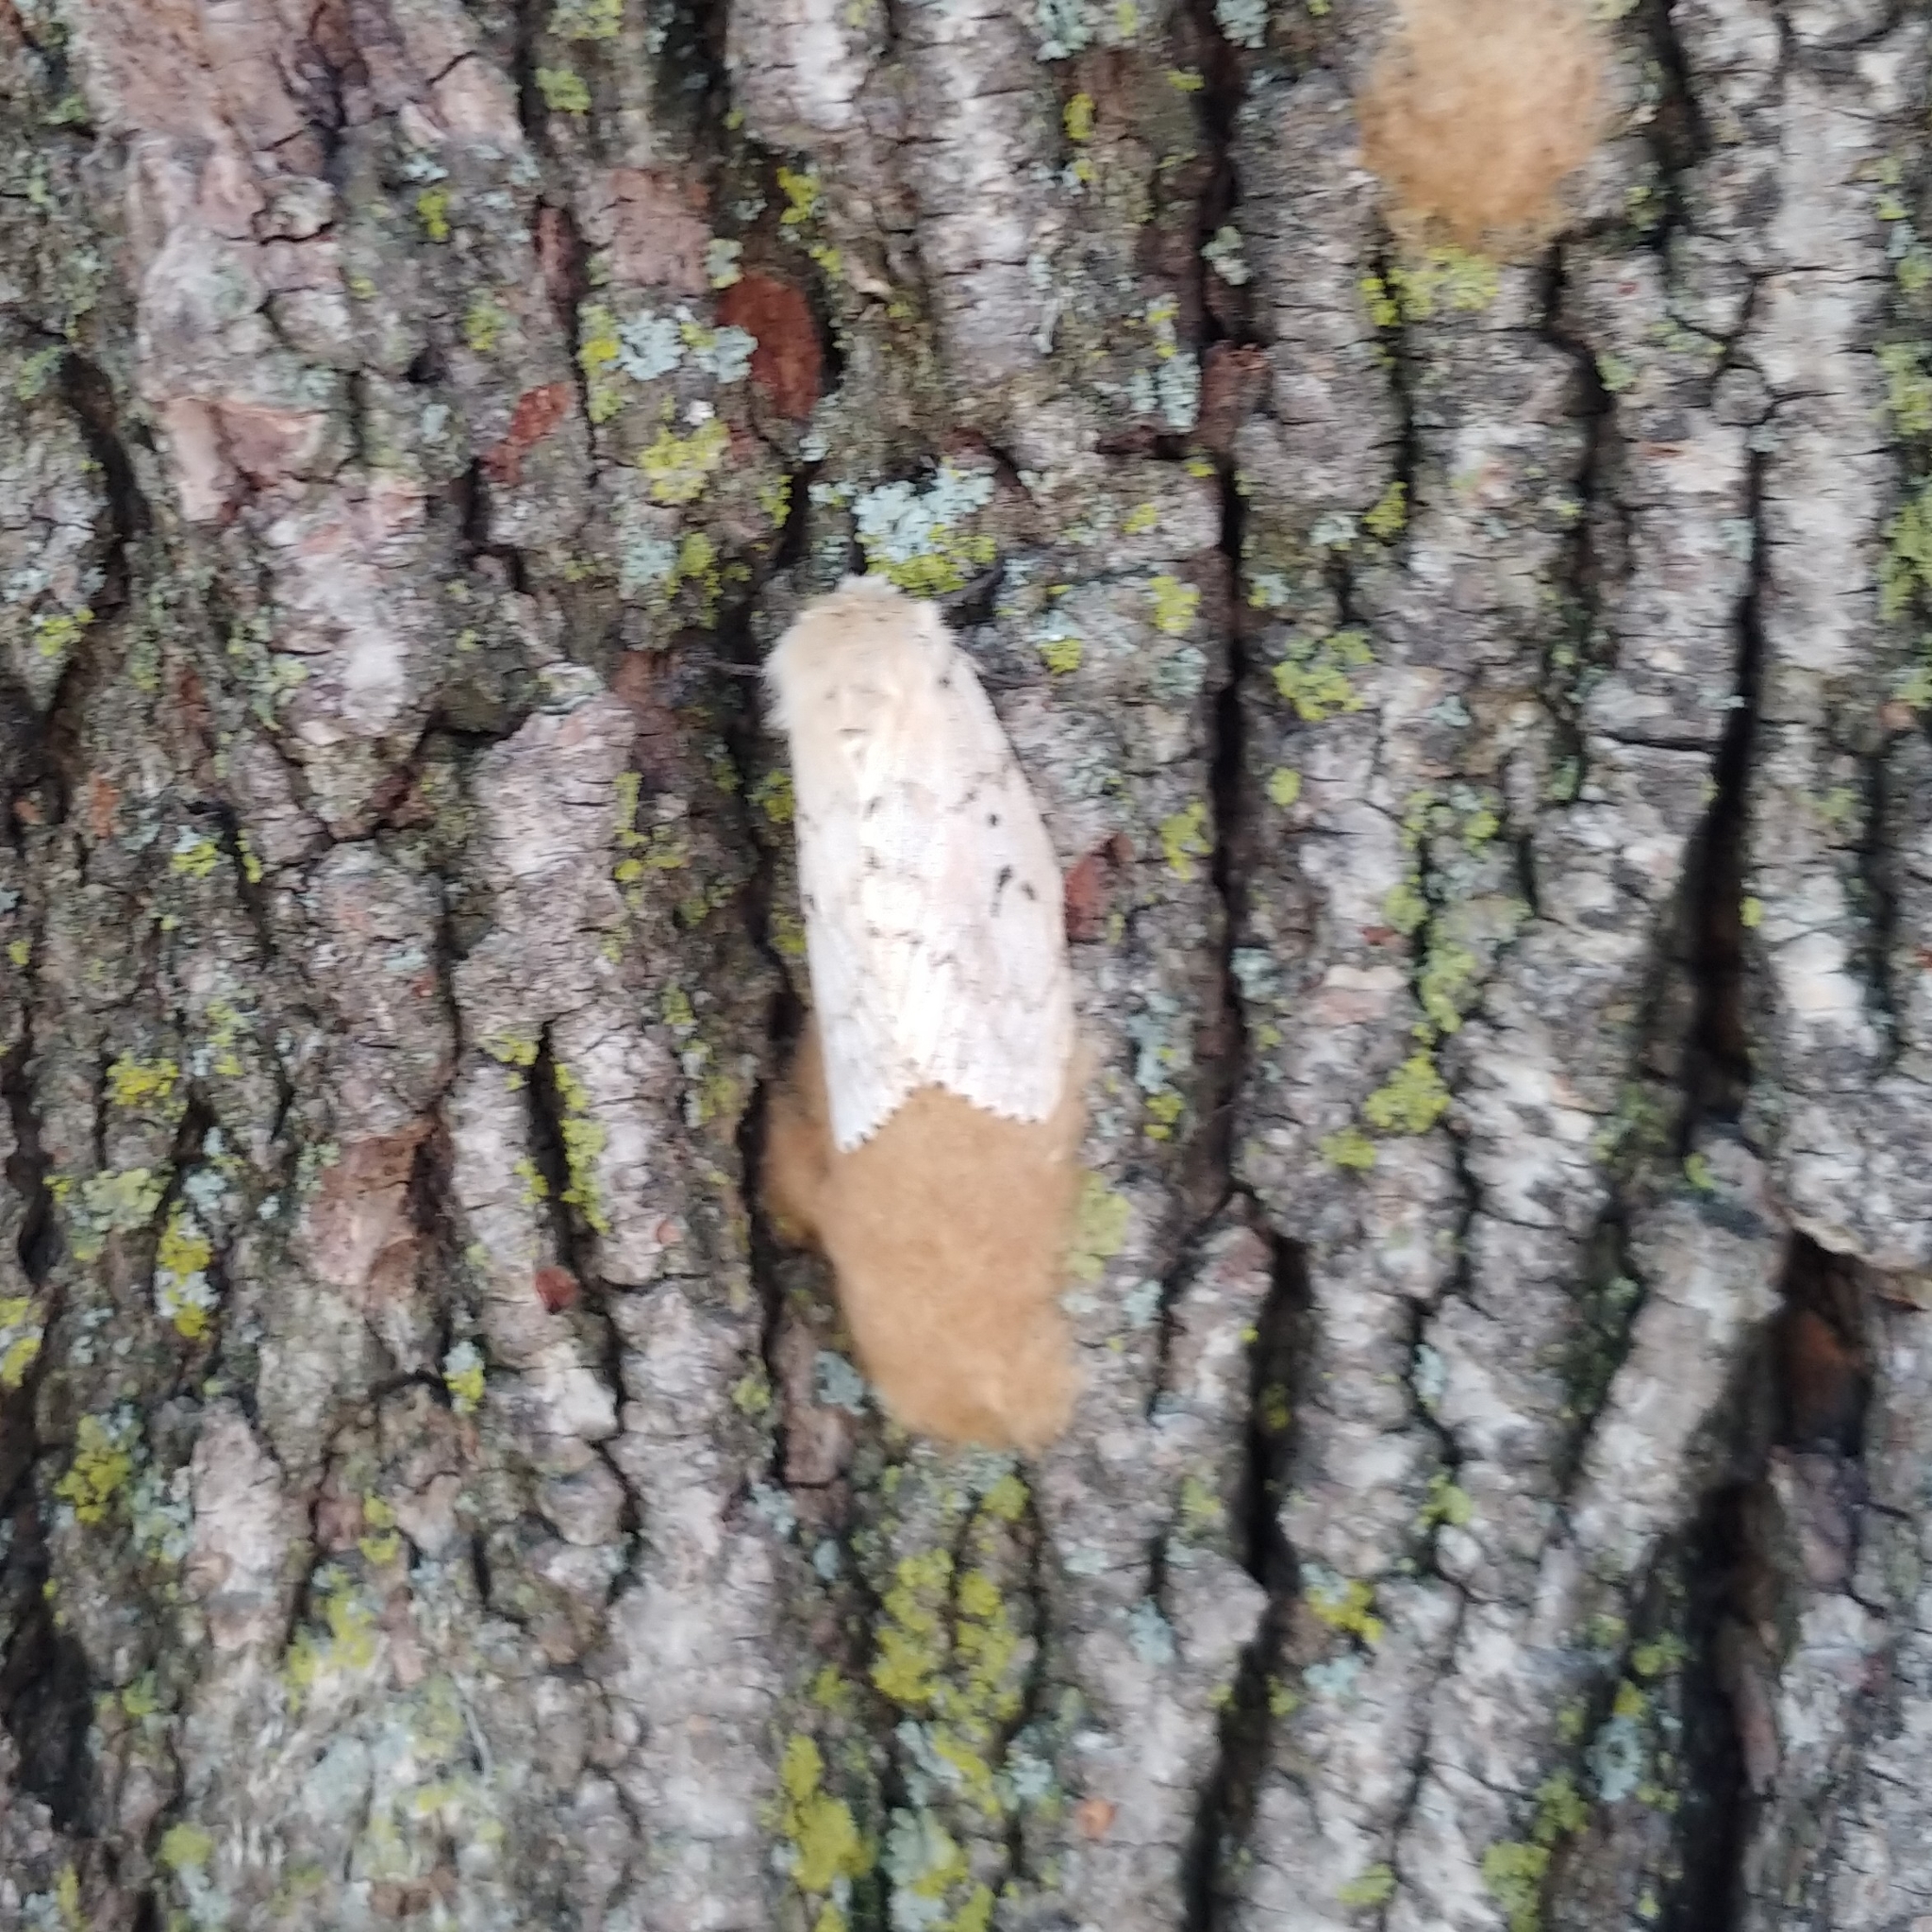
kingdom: Animalia
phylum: Arthropoda
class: Insecta
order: Lepidoptera
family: Erebidae
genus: Lymantria
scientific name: Lymantria dispar
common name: Gypsy moth
